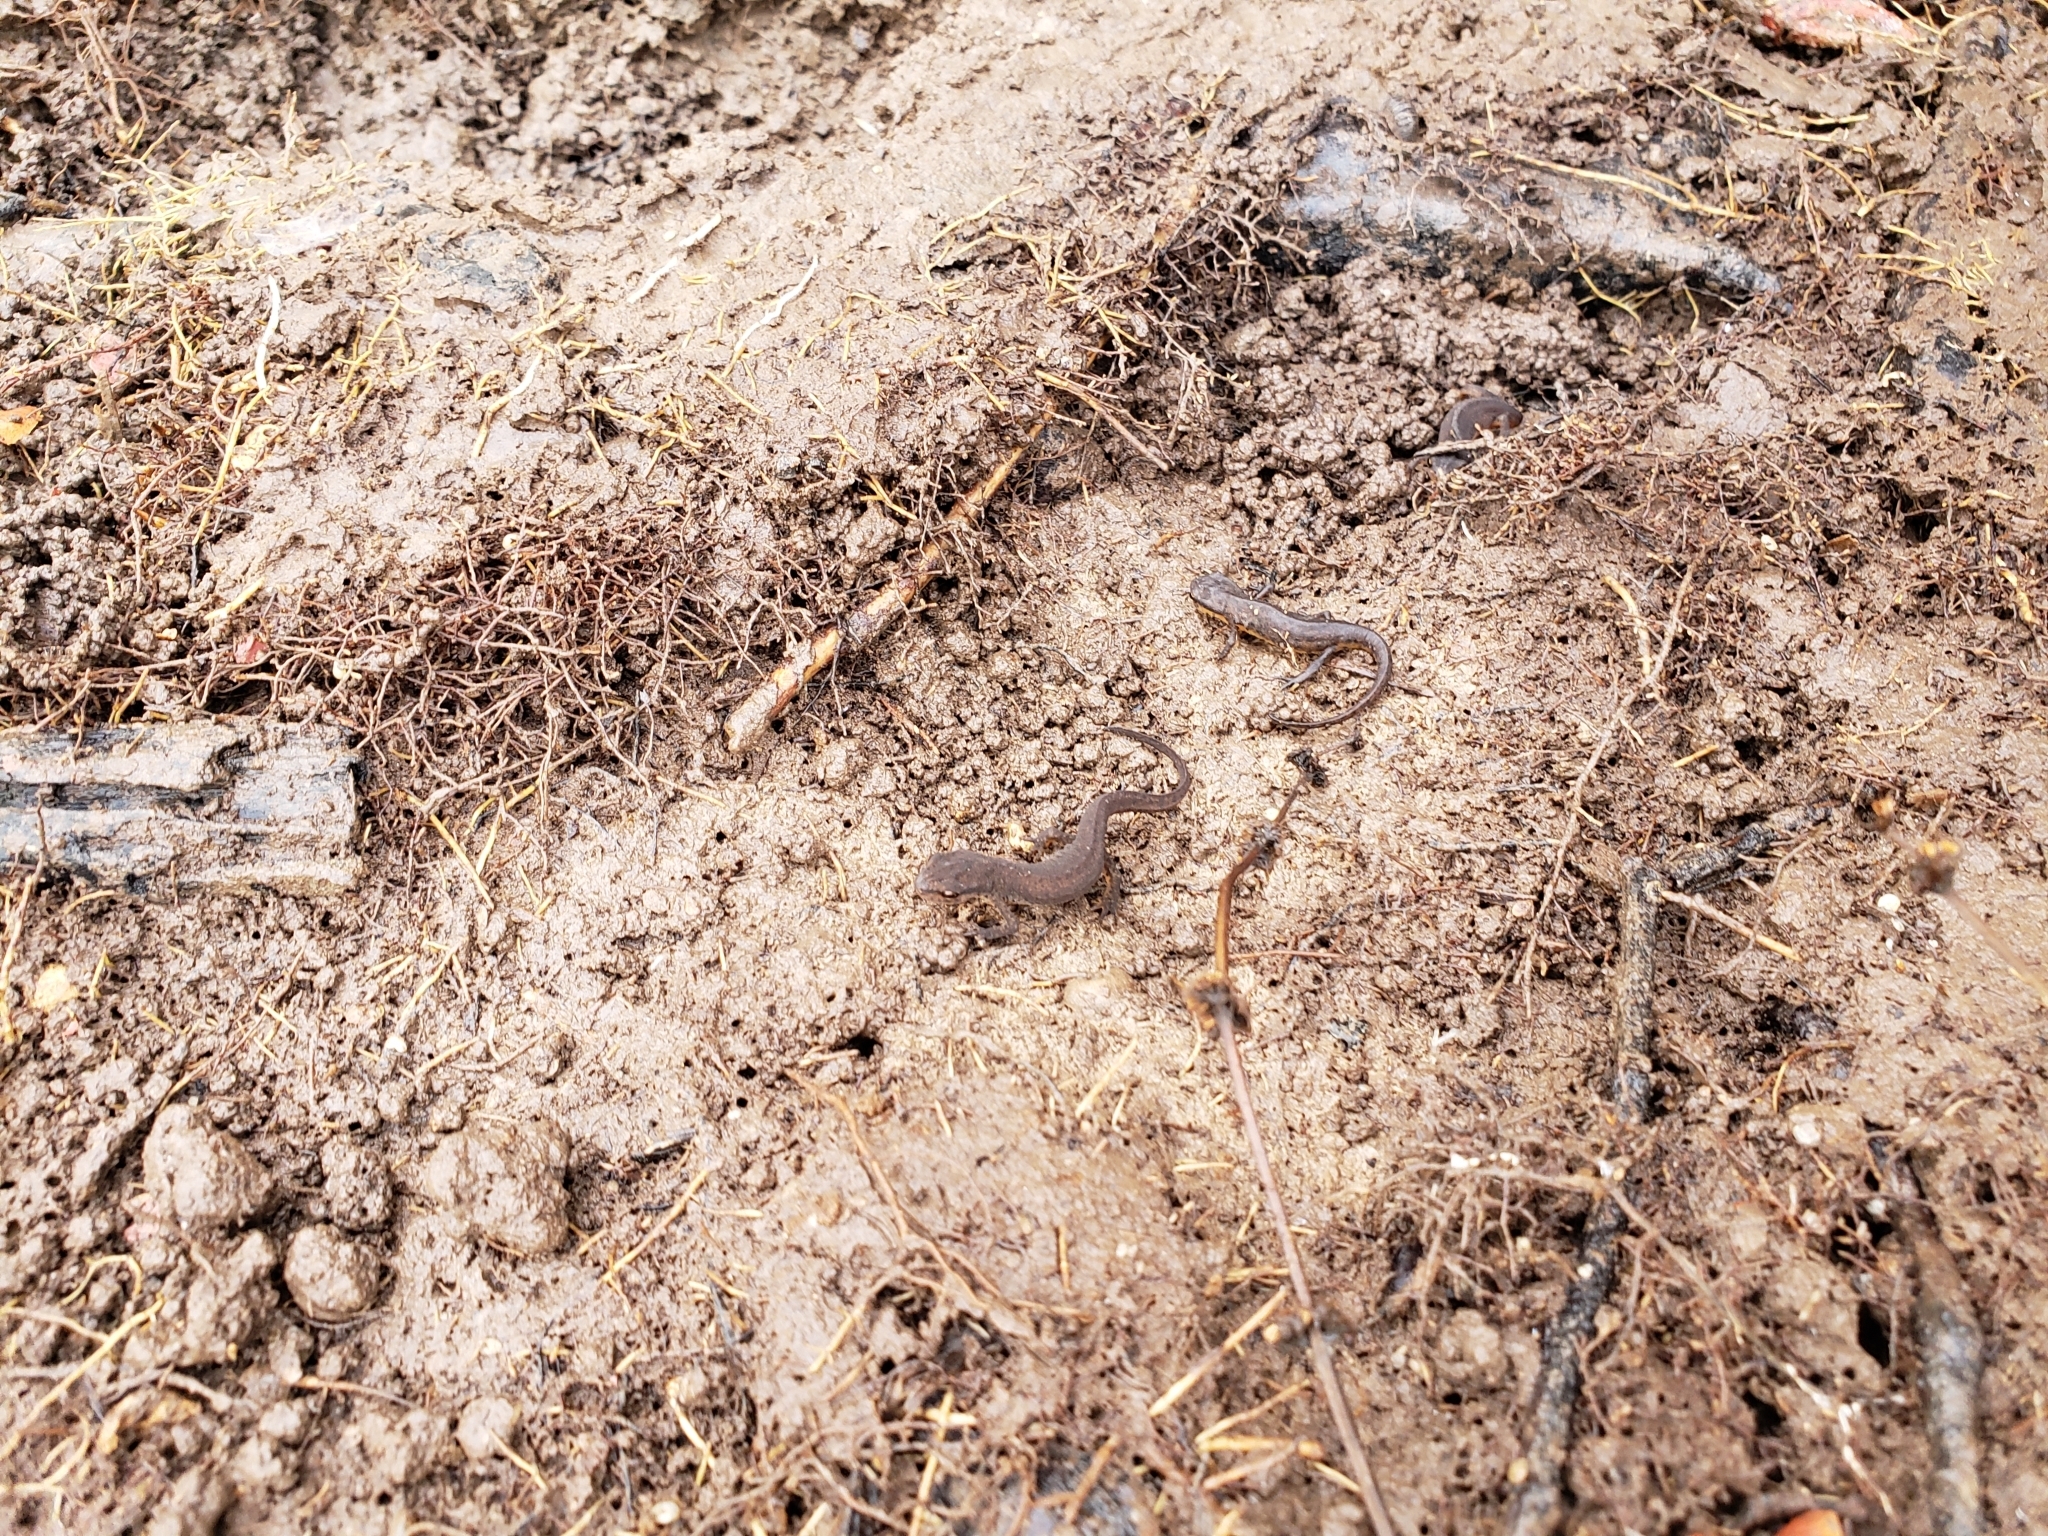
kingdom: Animalia
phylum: Chordata
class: Amphibia
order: Caudata
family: Salamandridae
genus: Notophthalmus
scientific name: Notophthalmus viridescens
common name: Eastern newt
